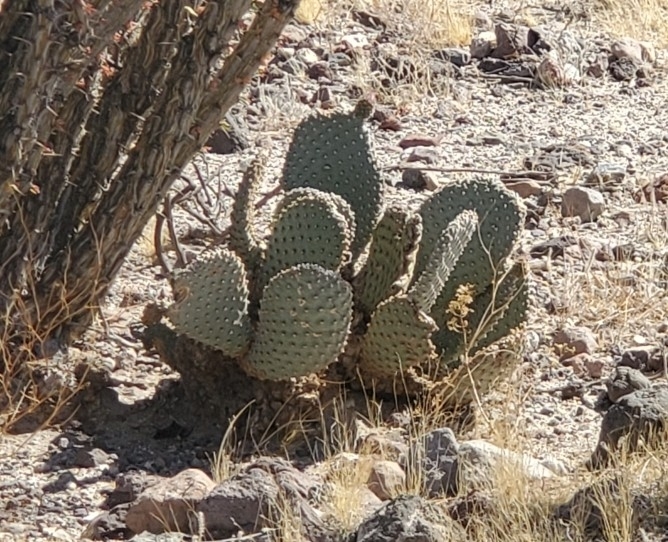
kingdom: Plantae
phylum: Tracheophyta
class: Magnoliopsida
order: Caryophyllales
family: Cactaceae
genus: Opuntia
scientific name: Opuntia basilaris
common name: Beavertail prickly-pear
